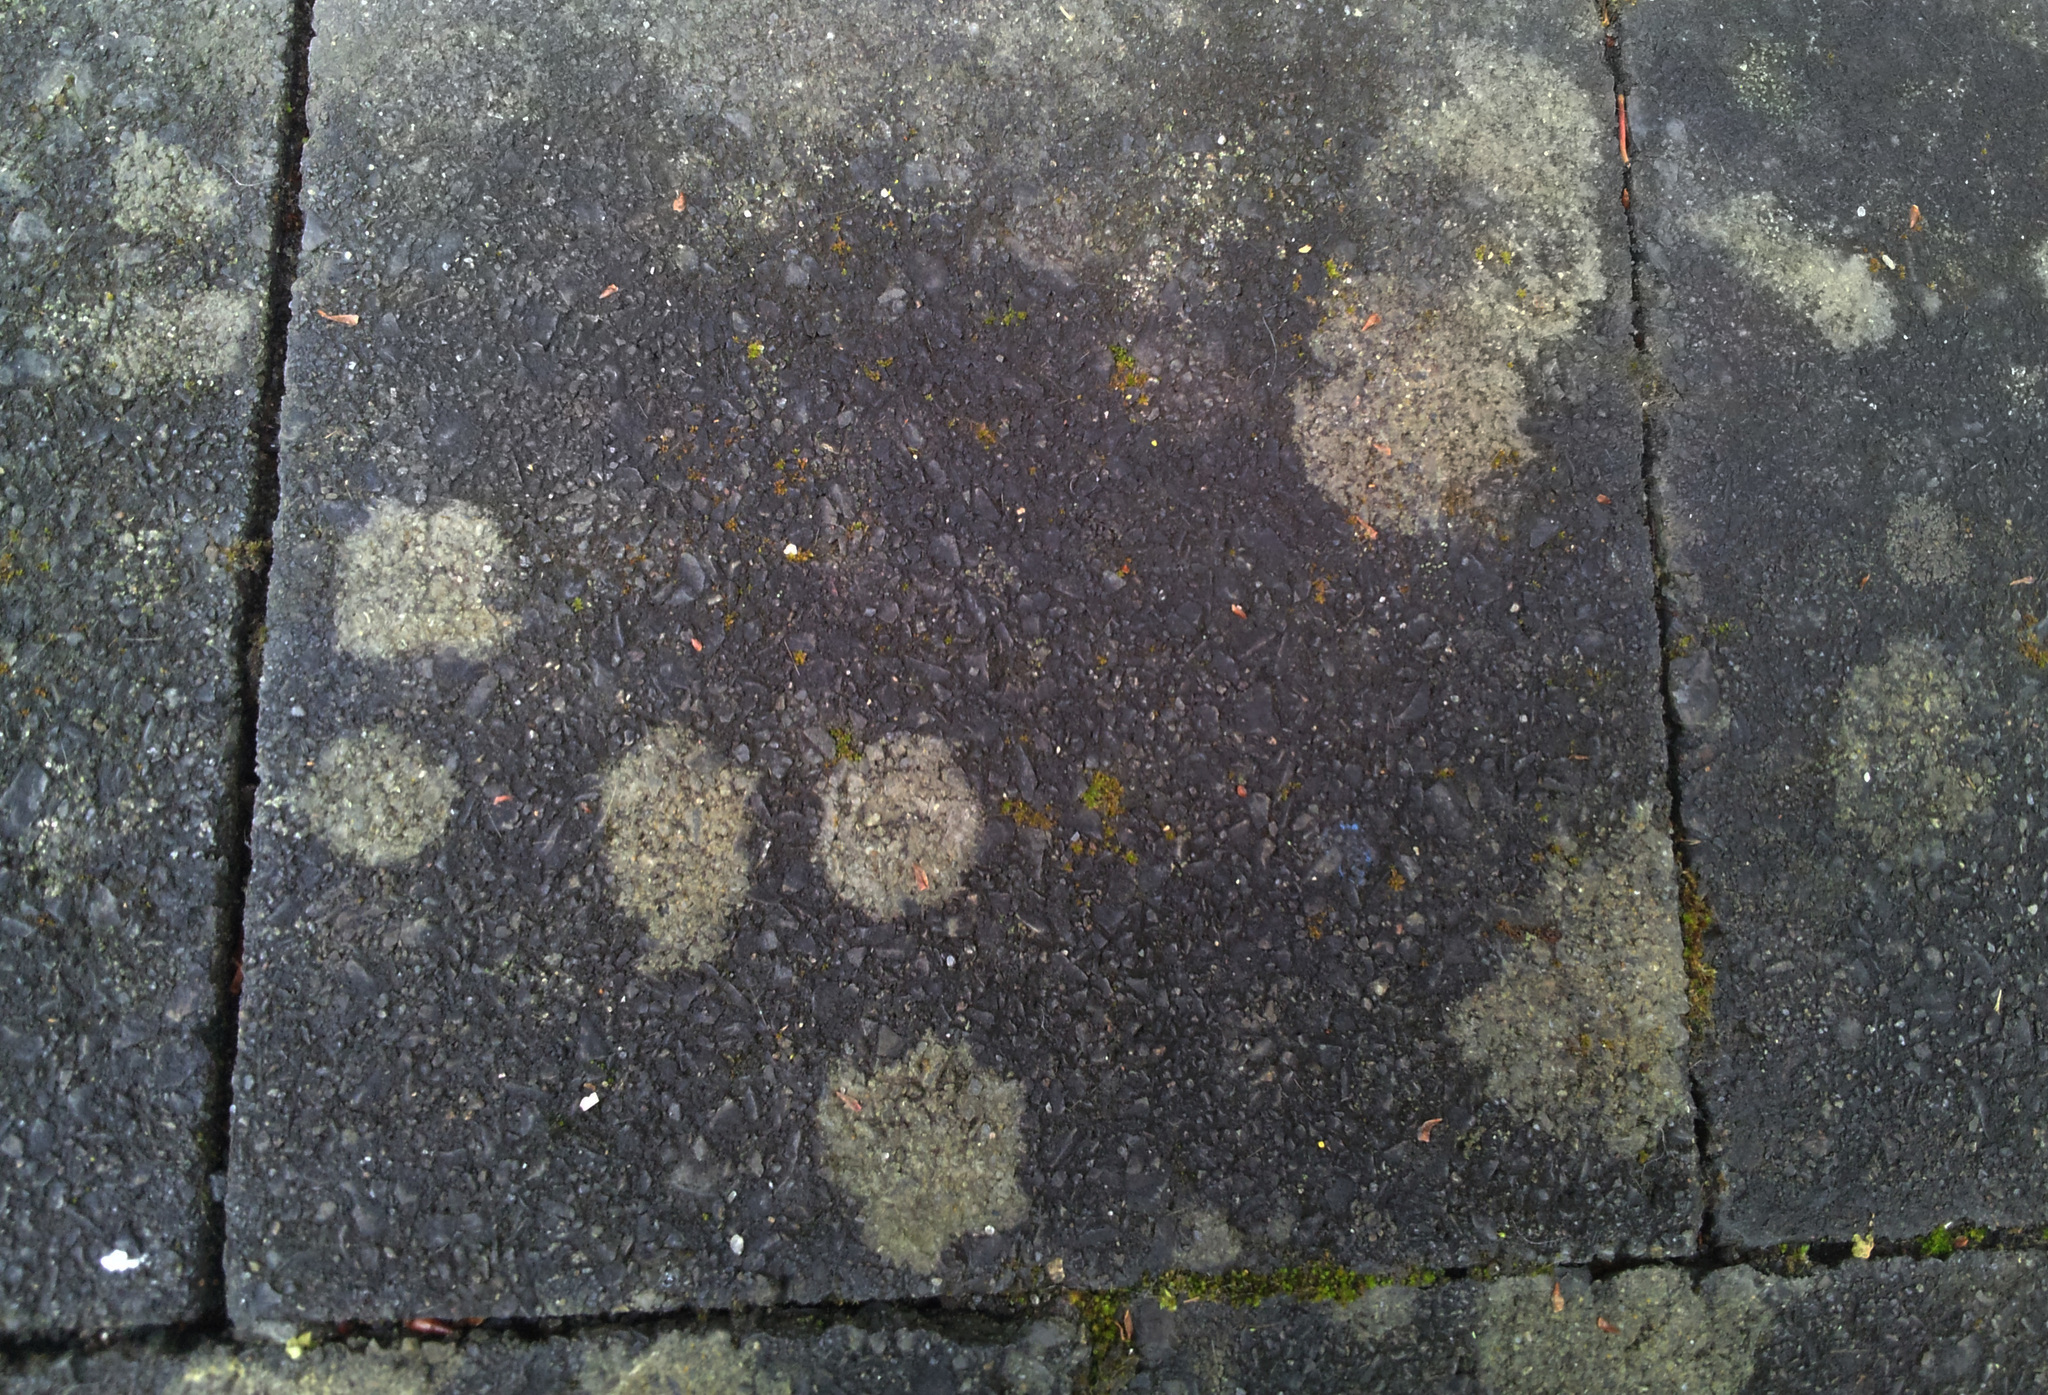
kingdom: Fungi
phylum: Ascomycota
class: Lecanoromycetes
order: Lecanorales
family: Psoraceae
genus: Protoblastenia
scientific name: Protoblastenia rupestris
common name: Chewing gum lichen
